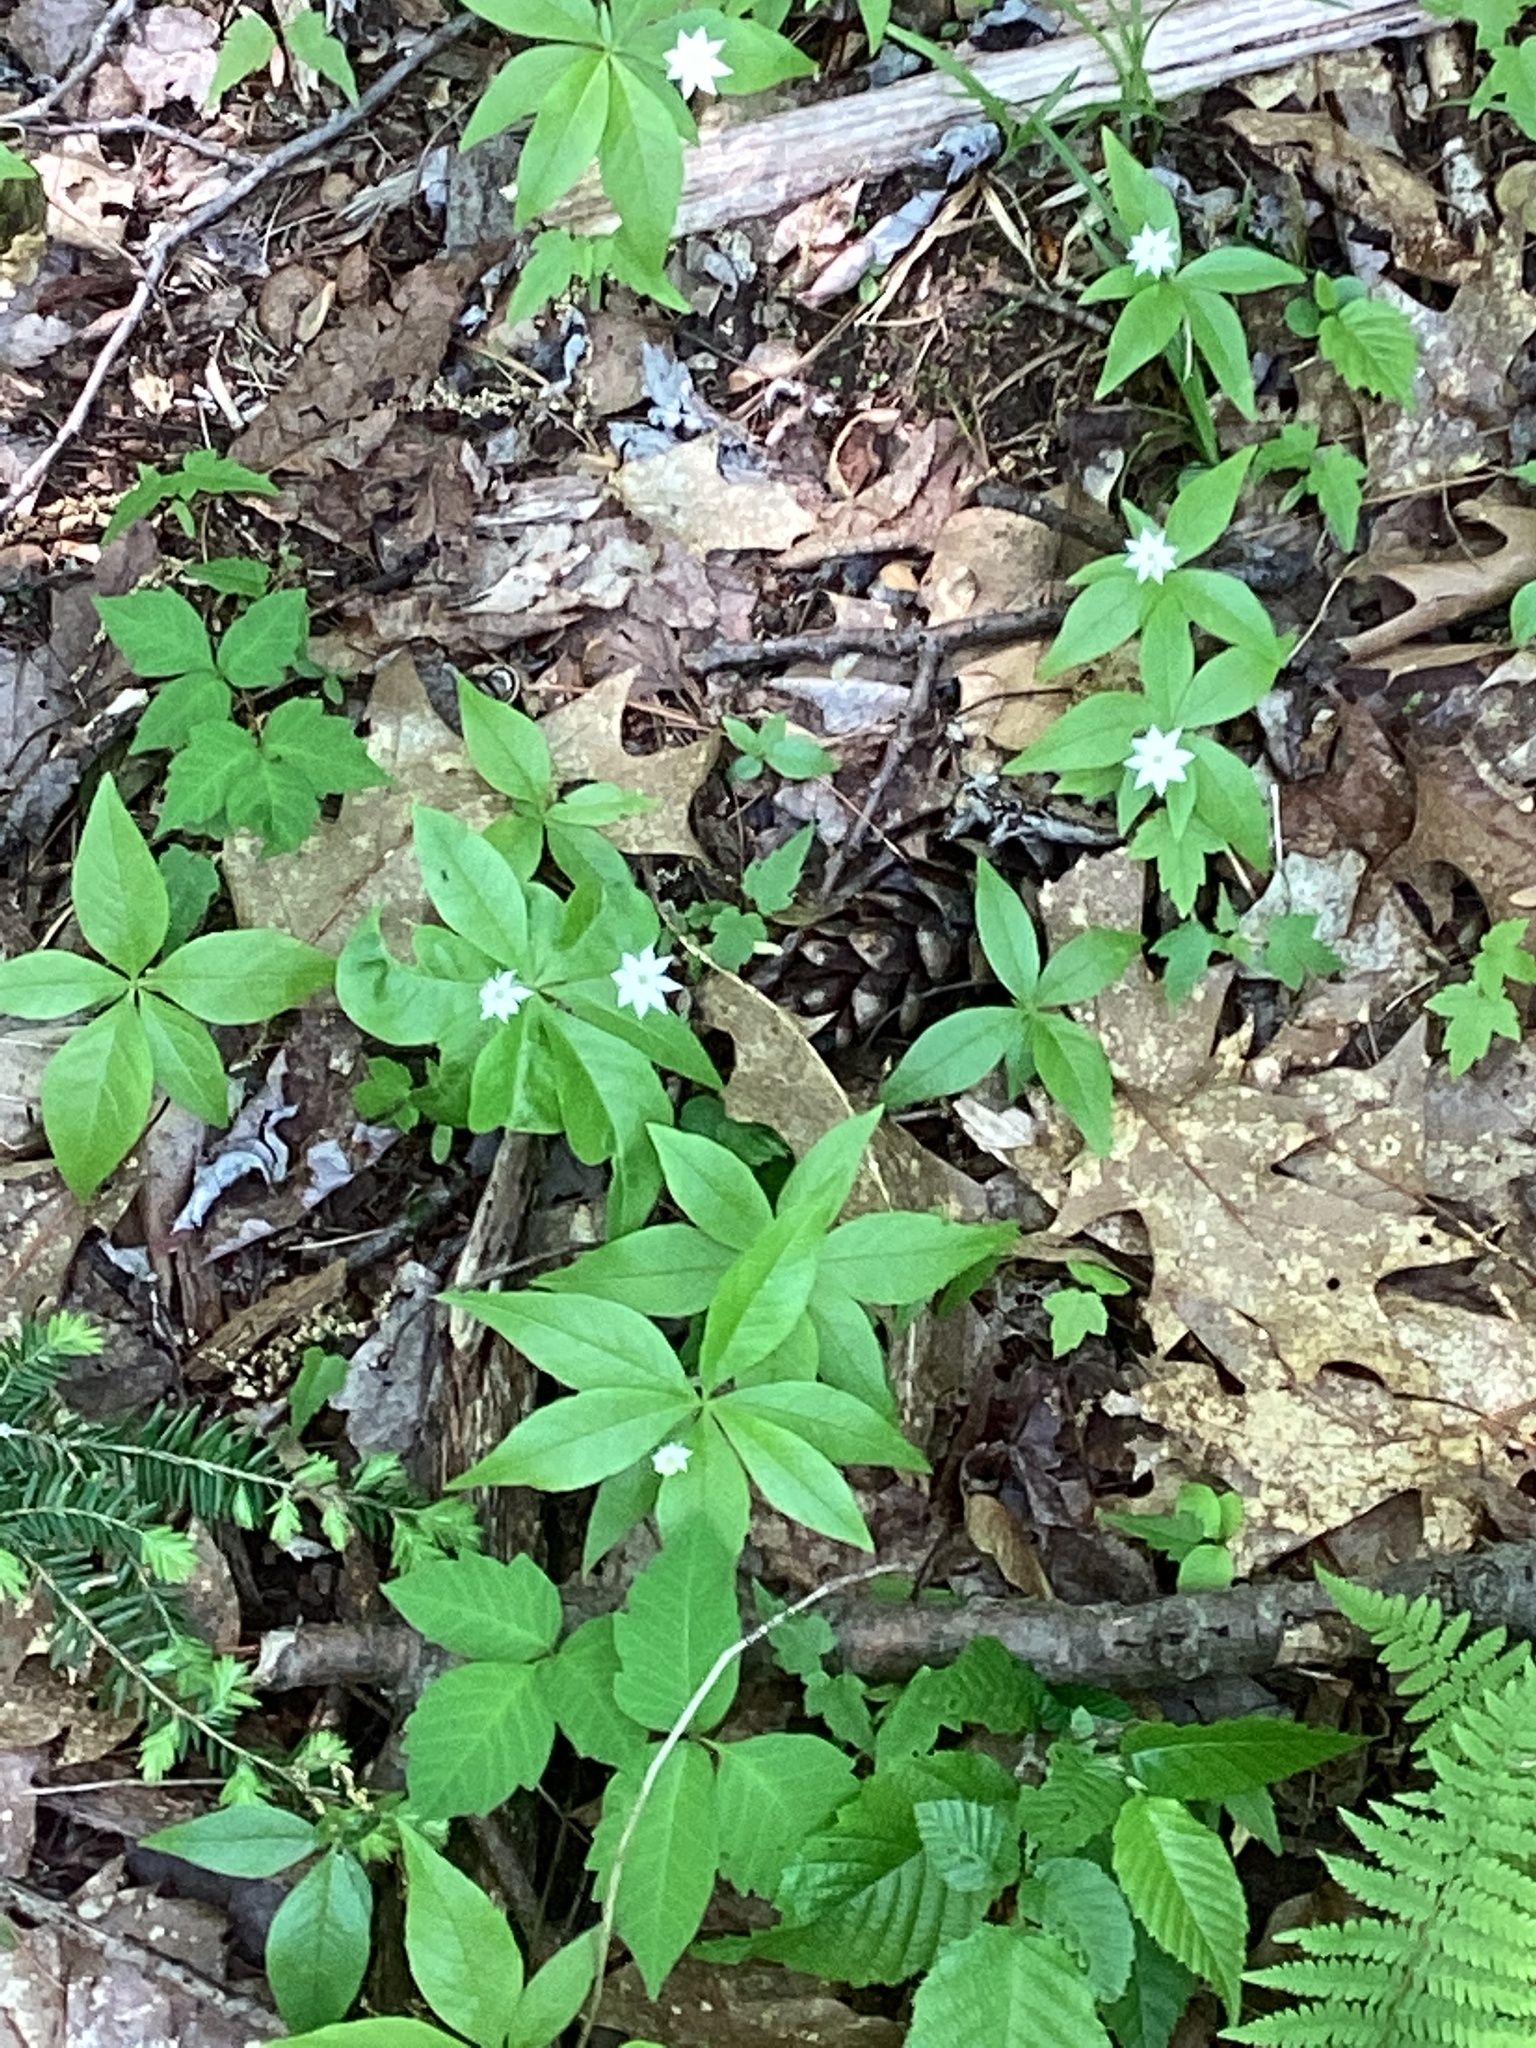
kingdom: Plantae
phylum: Tracheophyta
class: Magnoliopsida
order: Ericales
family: Primulaceae
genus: Lysimachia
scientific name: Lysimachia borealis
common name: American starflower
